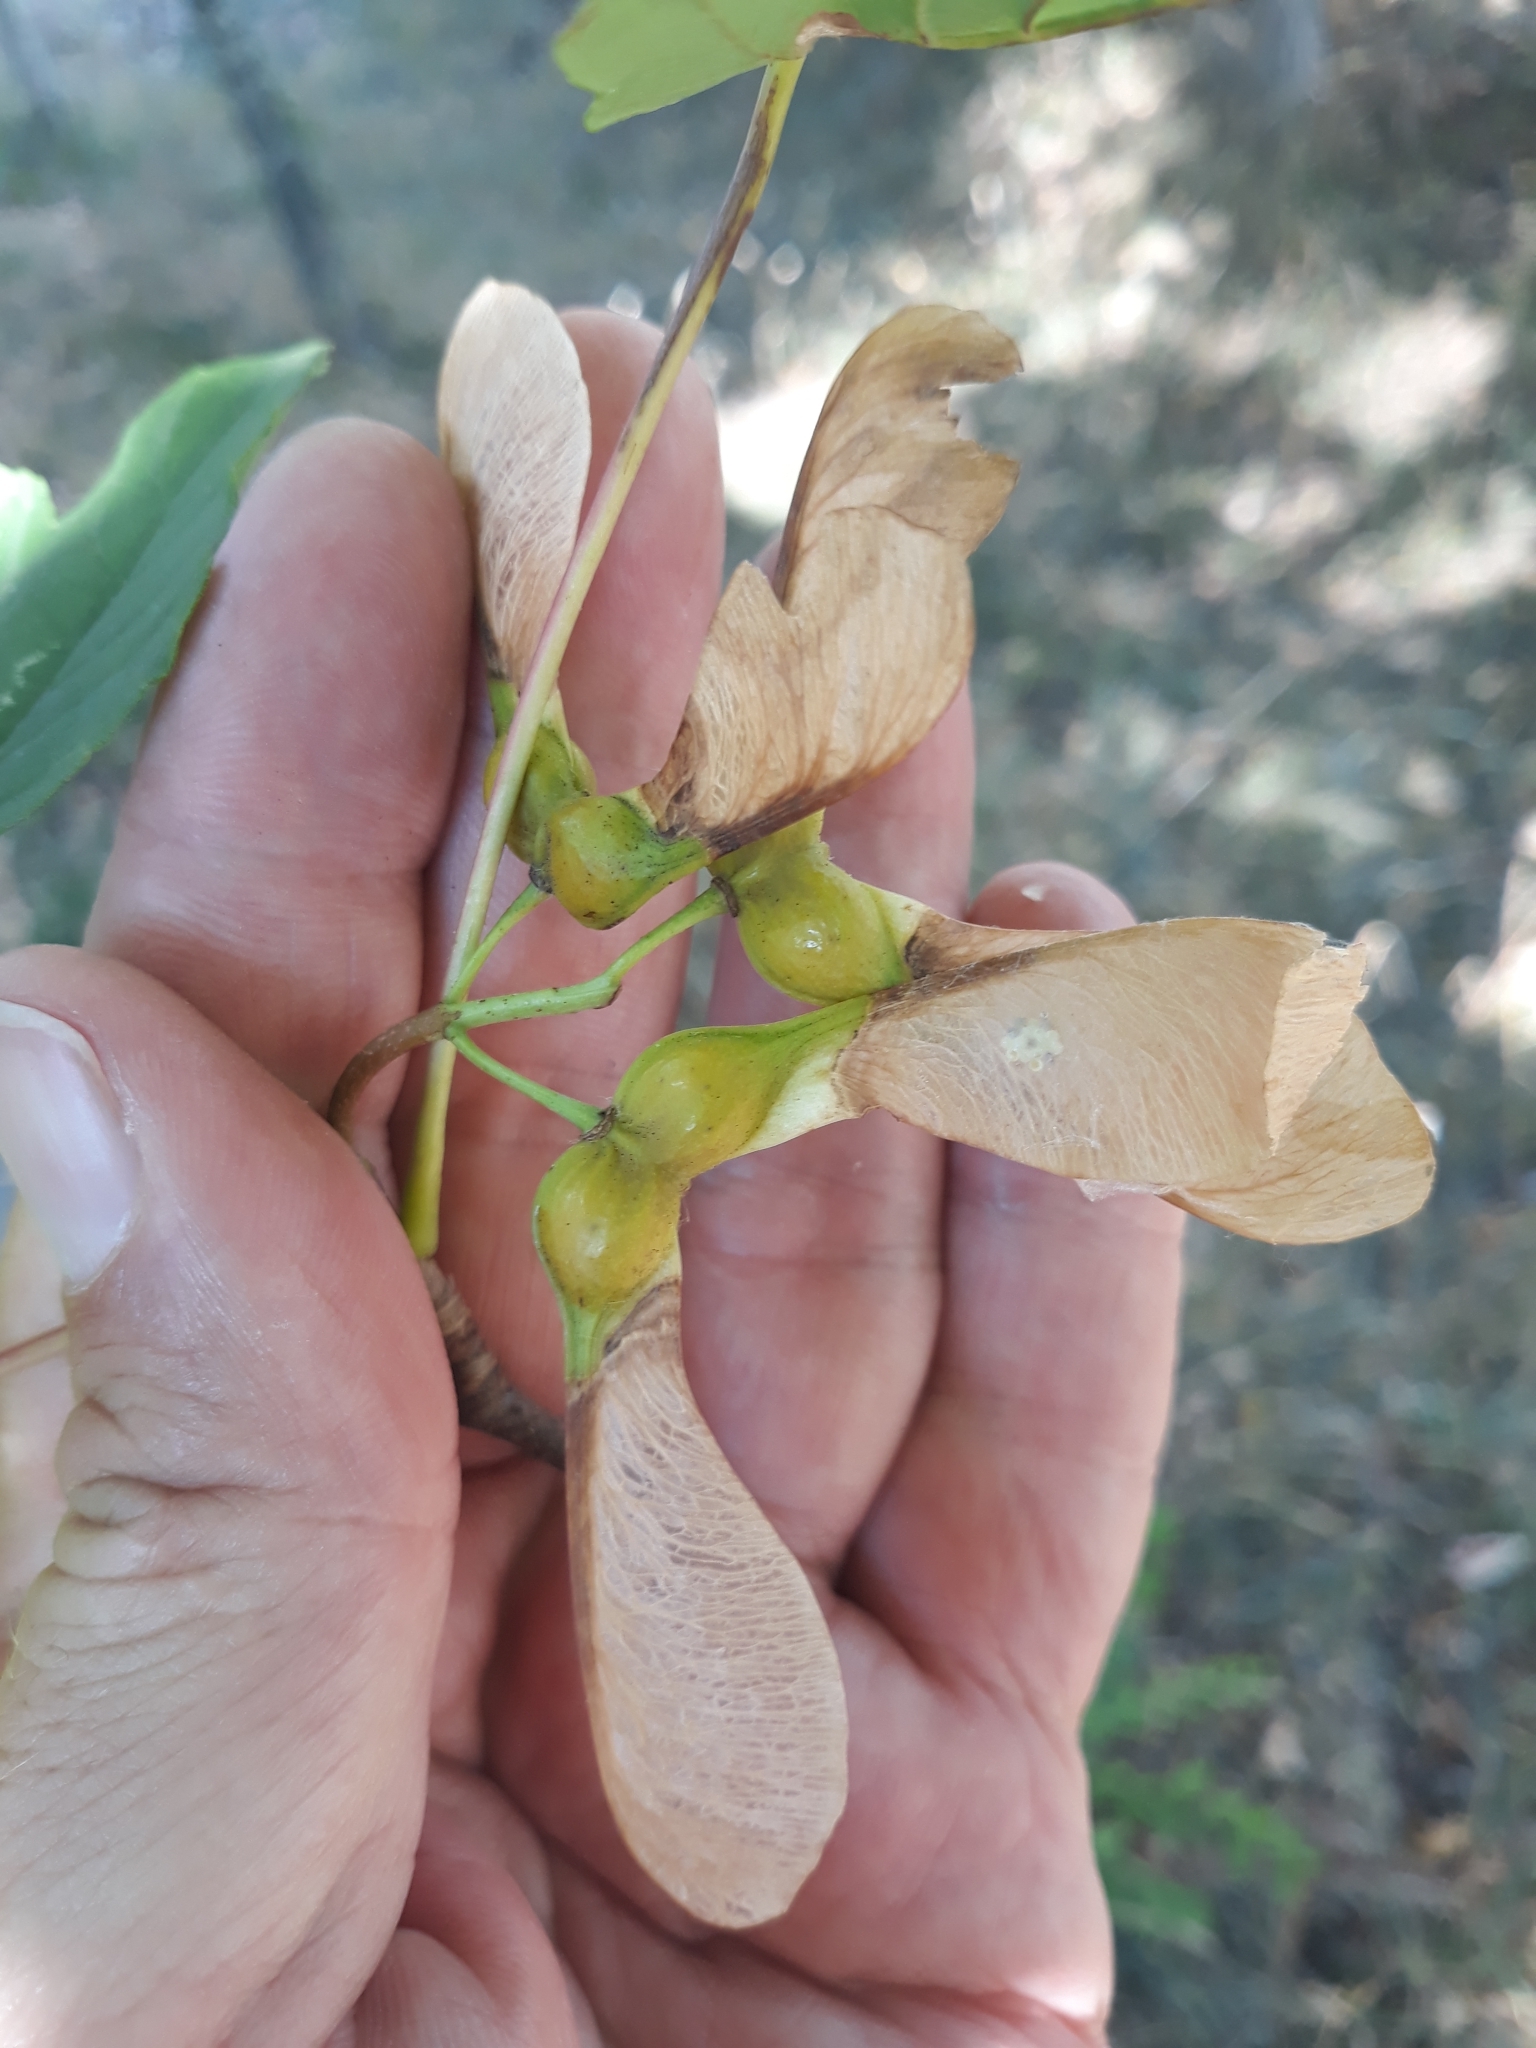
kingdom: Plantae
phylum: Tracheophyta
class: Magnoliopsida
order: Sapindales
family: Sapindaceae
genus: Acer
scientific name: Acer pseudoplatanus
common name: Sycamore
